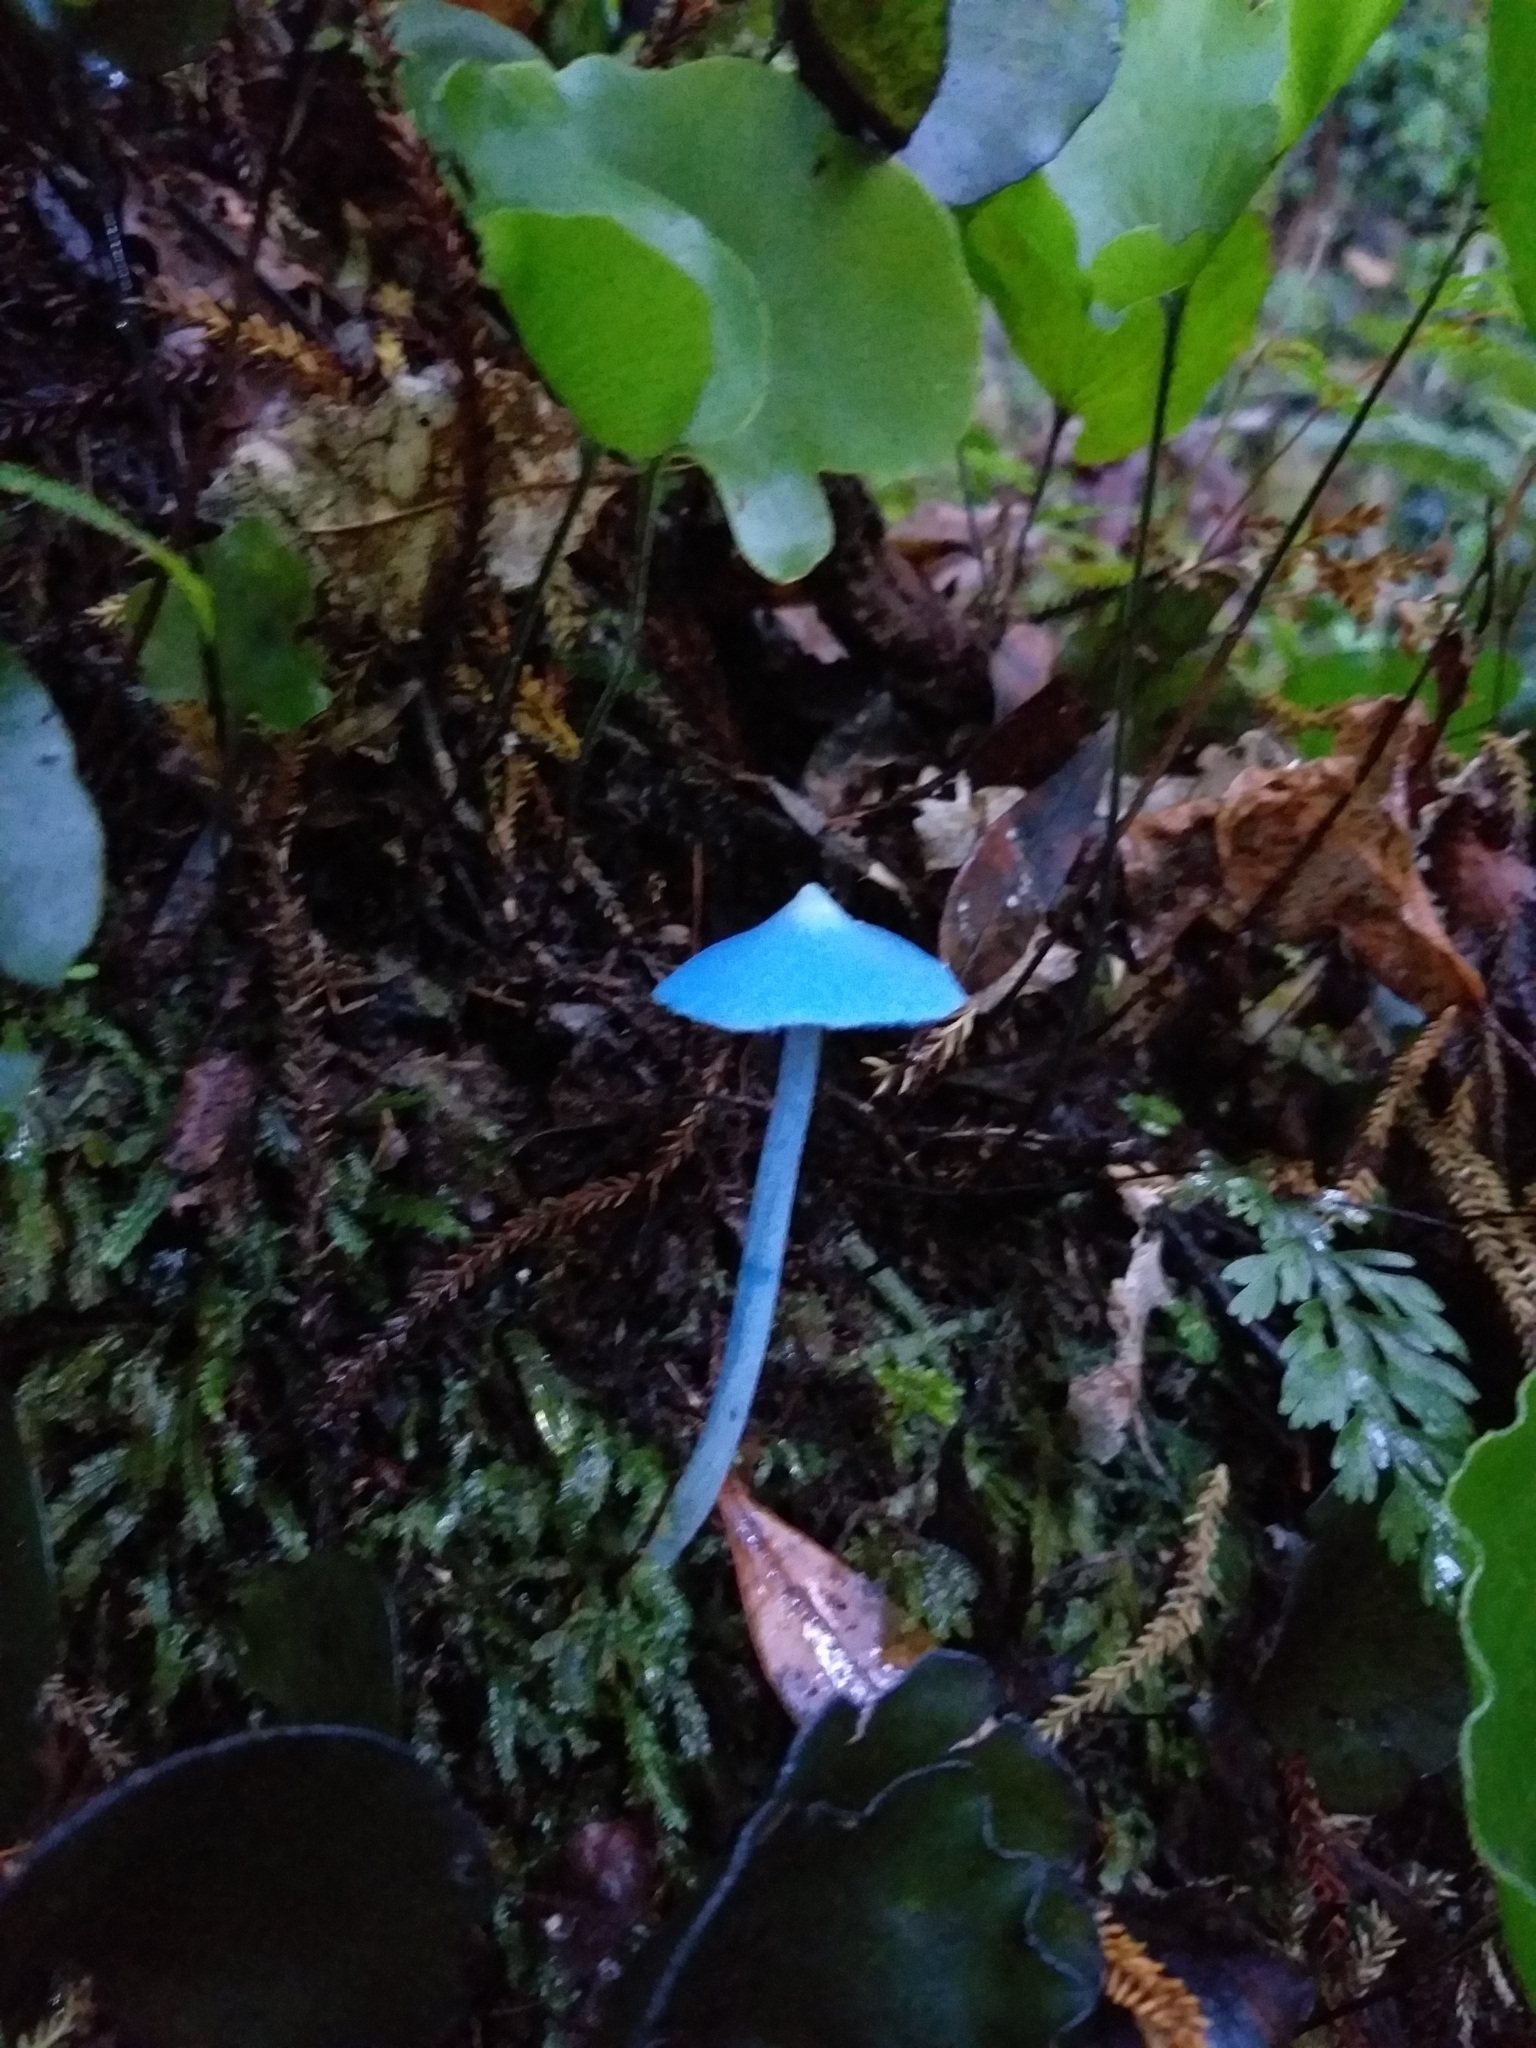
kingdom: Fungi
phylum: Basidiomycota
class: Agaricomycetes
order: Agaricales
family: Entolomataceae
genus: Entoloma
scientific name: Entoloma hochstetteri
